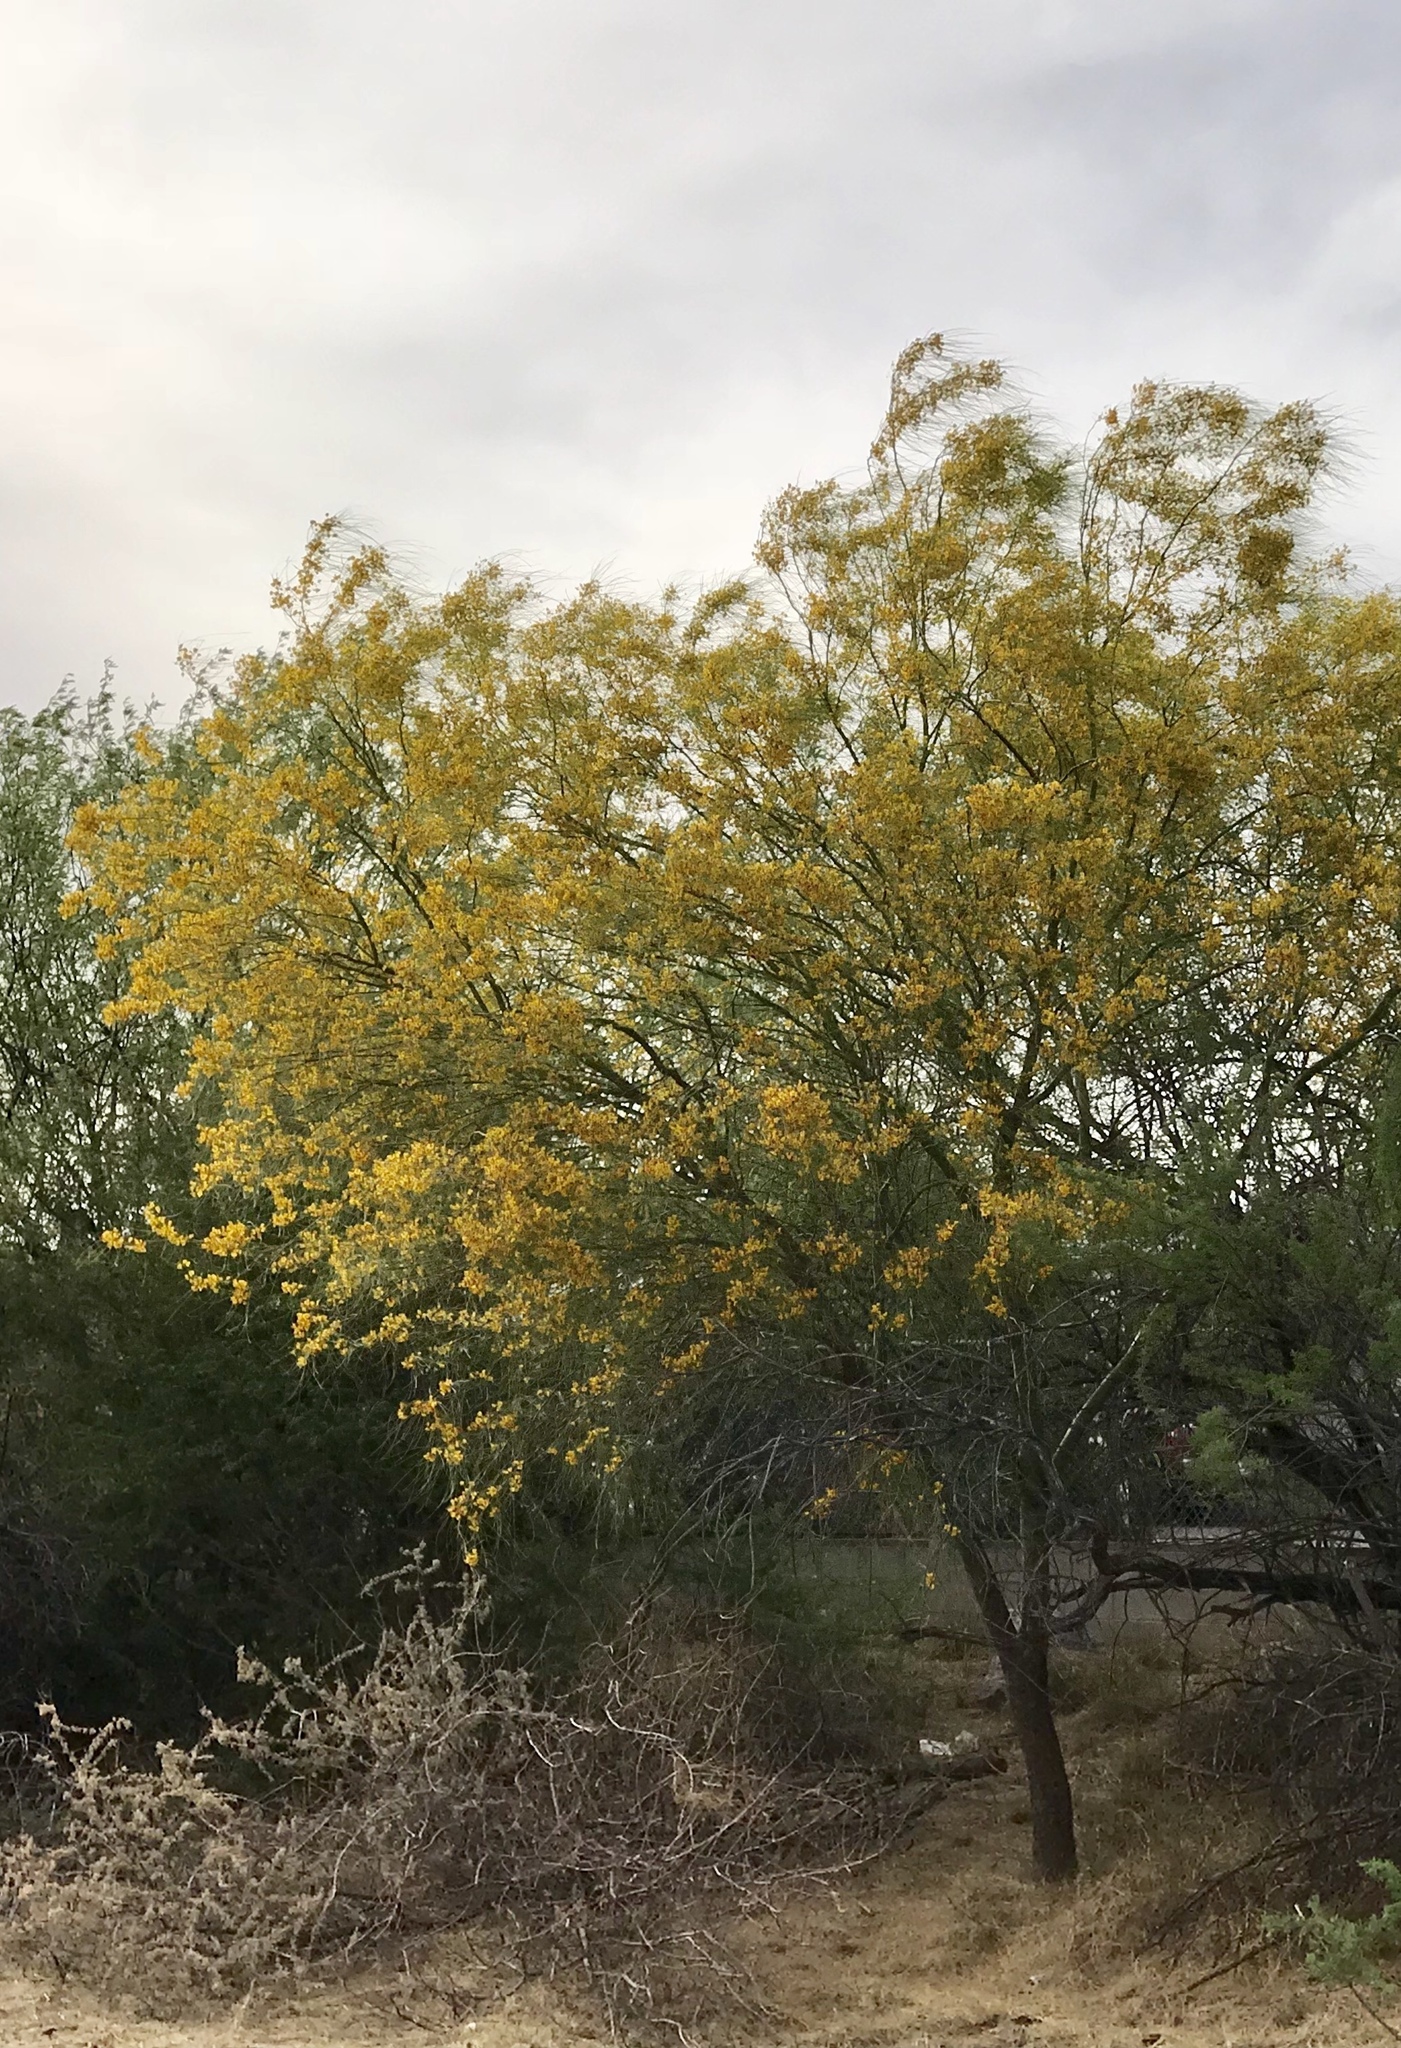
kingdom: Plantae
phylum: Tracheophyta
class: Magnoliopsida
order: Fabales
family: Fabaceae
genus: Parkinsonia
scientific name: Parkinsonia aculeata
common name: Jerusalem thorn
